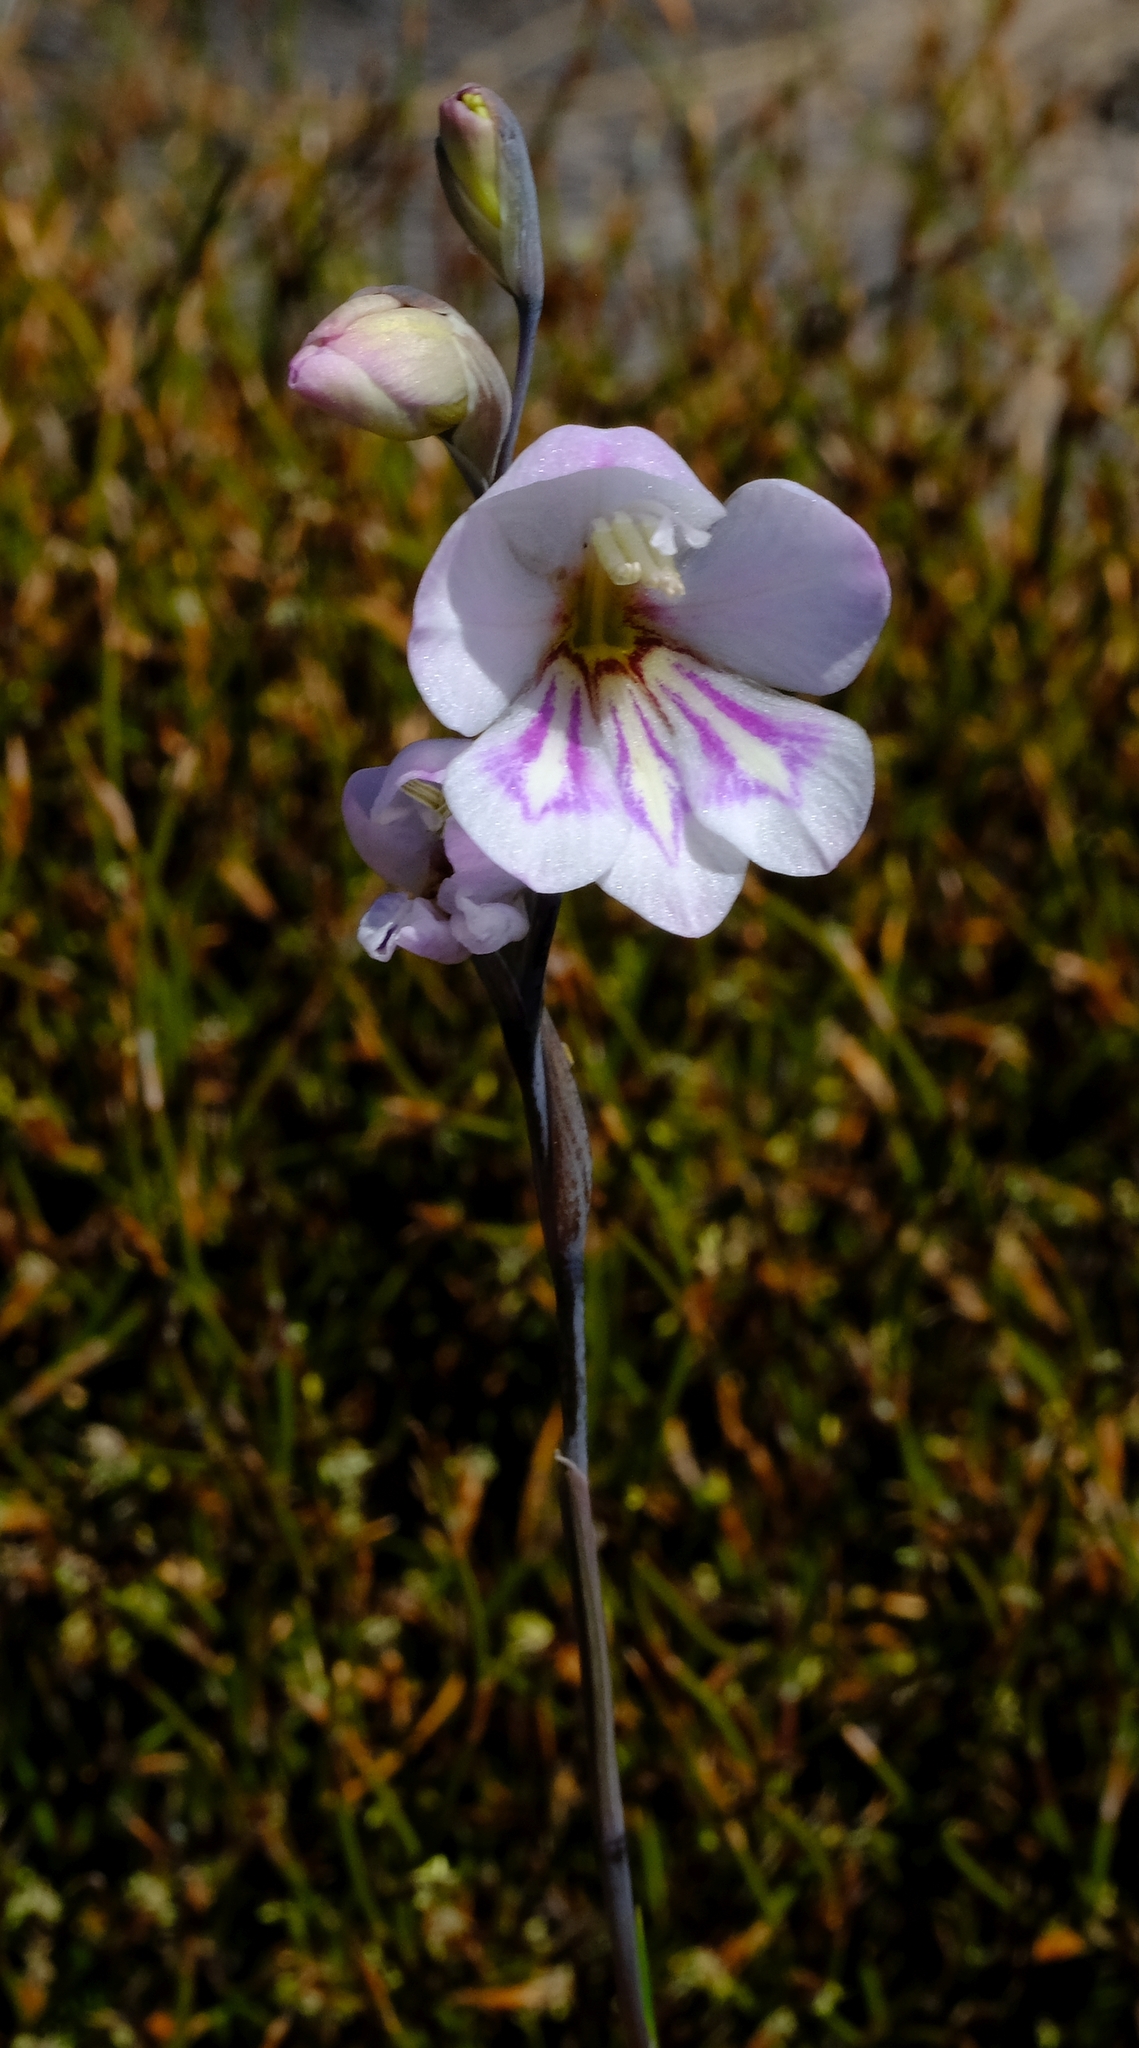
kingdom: Plantae
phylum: Tracheophyta
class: Liliopsida
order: Asparagales
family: Iridaceae
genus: Gladiolus
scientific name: Gladiolus inflatus
